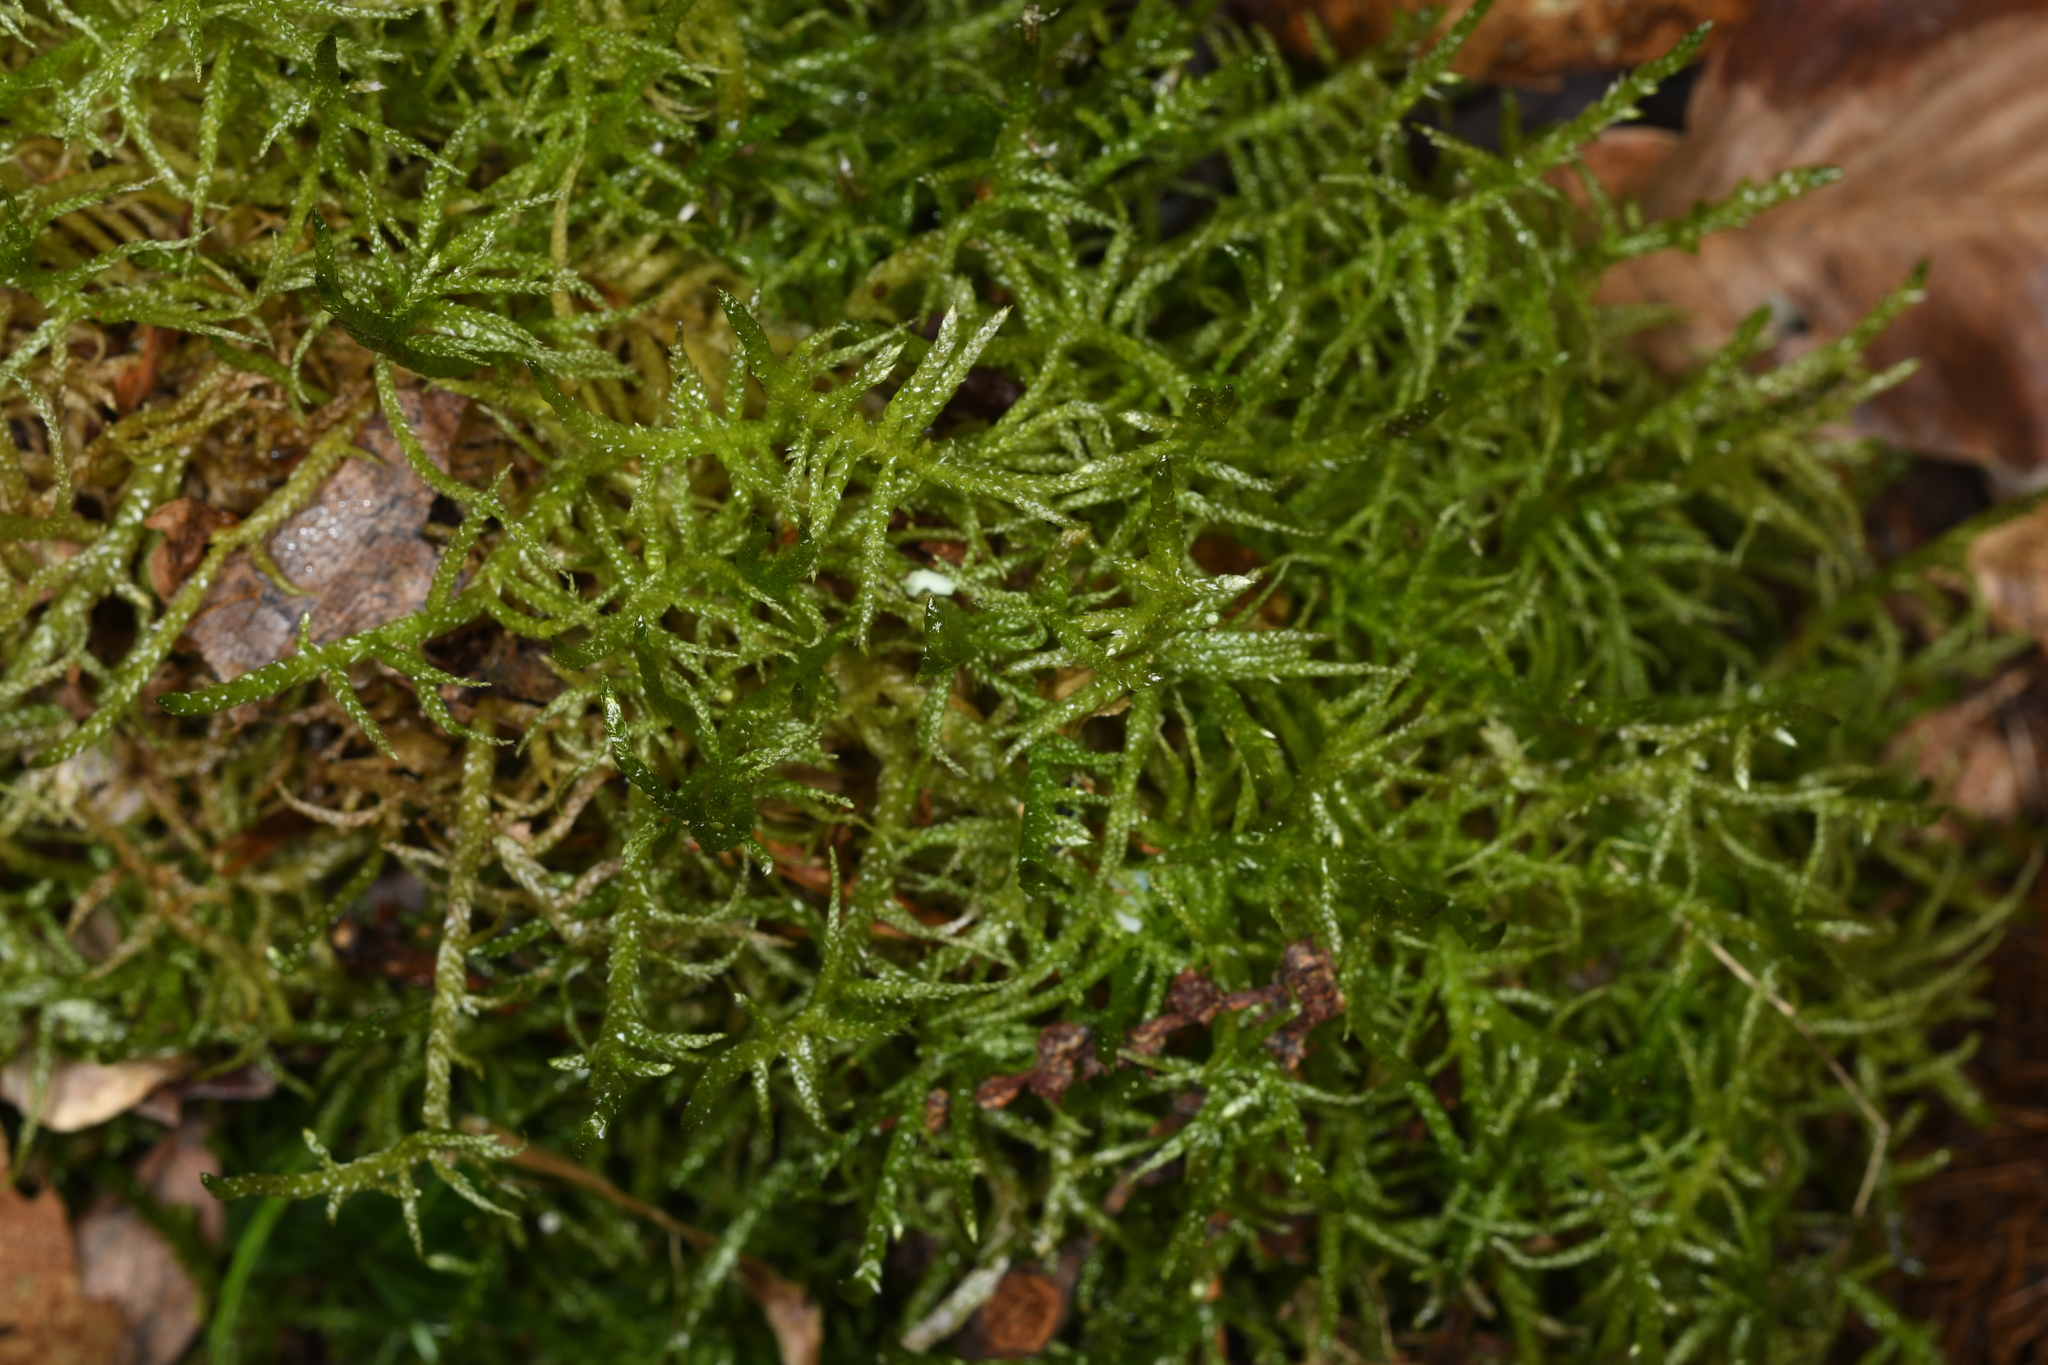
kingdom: Plantae
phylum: Bryophyta
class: Bryopsida
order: Hypnales
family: Brachytheciaceae
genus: Pseudoscleropodium
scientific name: Pseudoscleropodium purum
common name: Neat feather-moss
